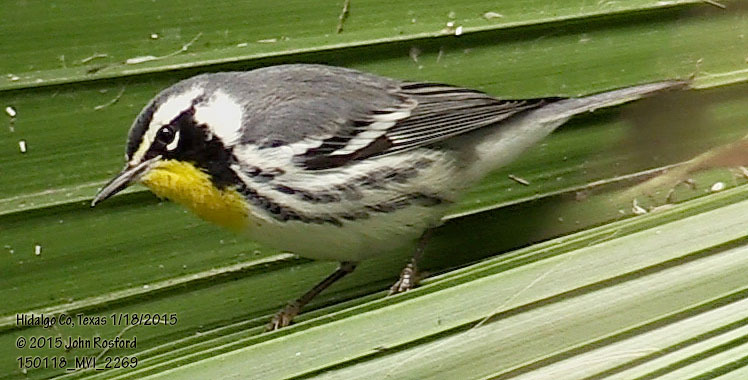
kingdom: Animalia
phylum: Chordata
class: Aves
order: Passeriformes
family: Parulidae
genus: Setophaga
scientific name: Setophaga dominica
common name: Yellow-throated warbler
